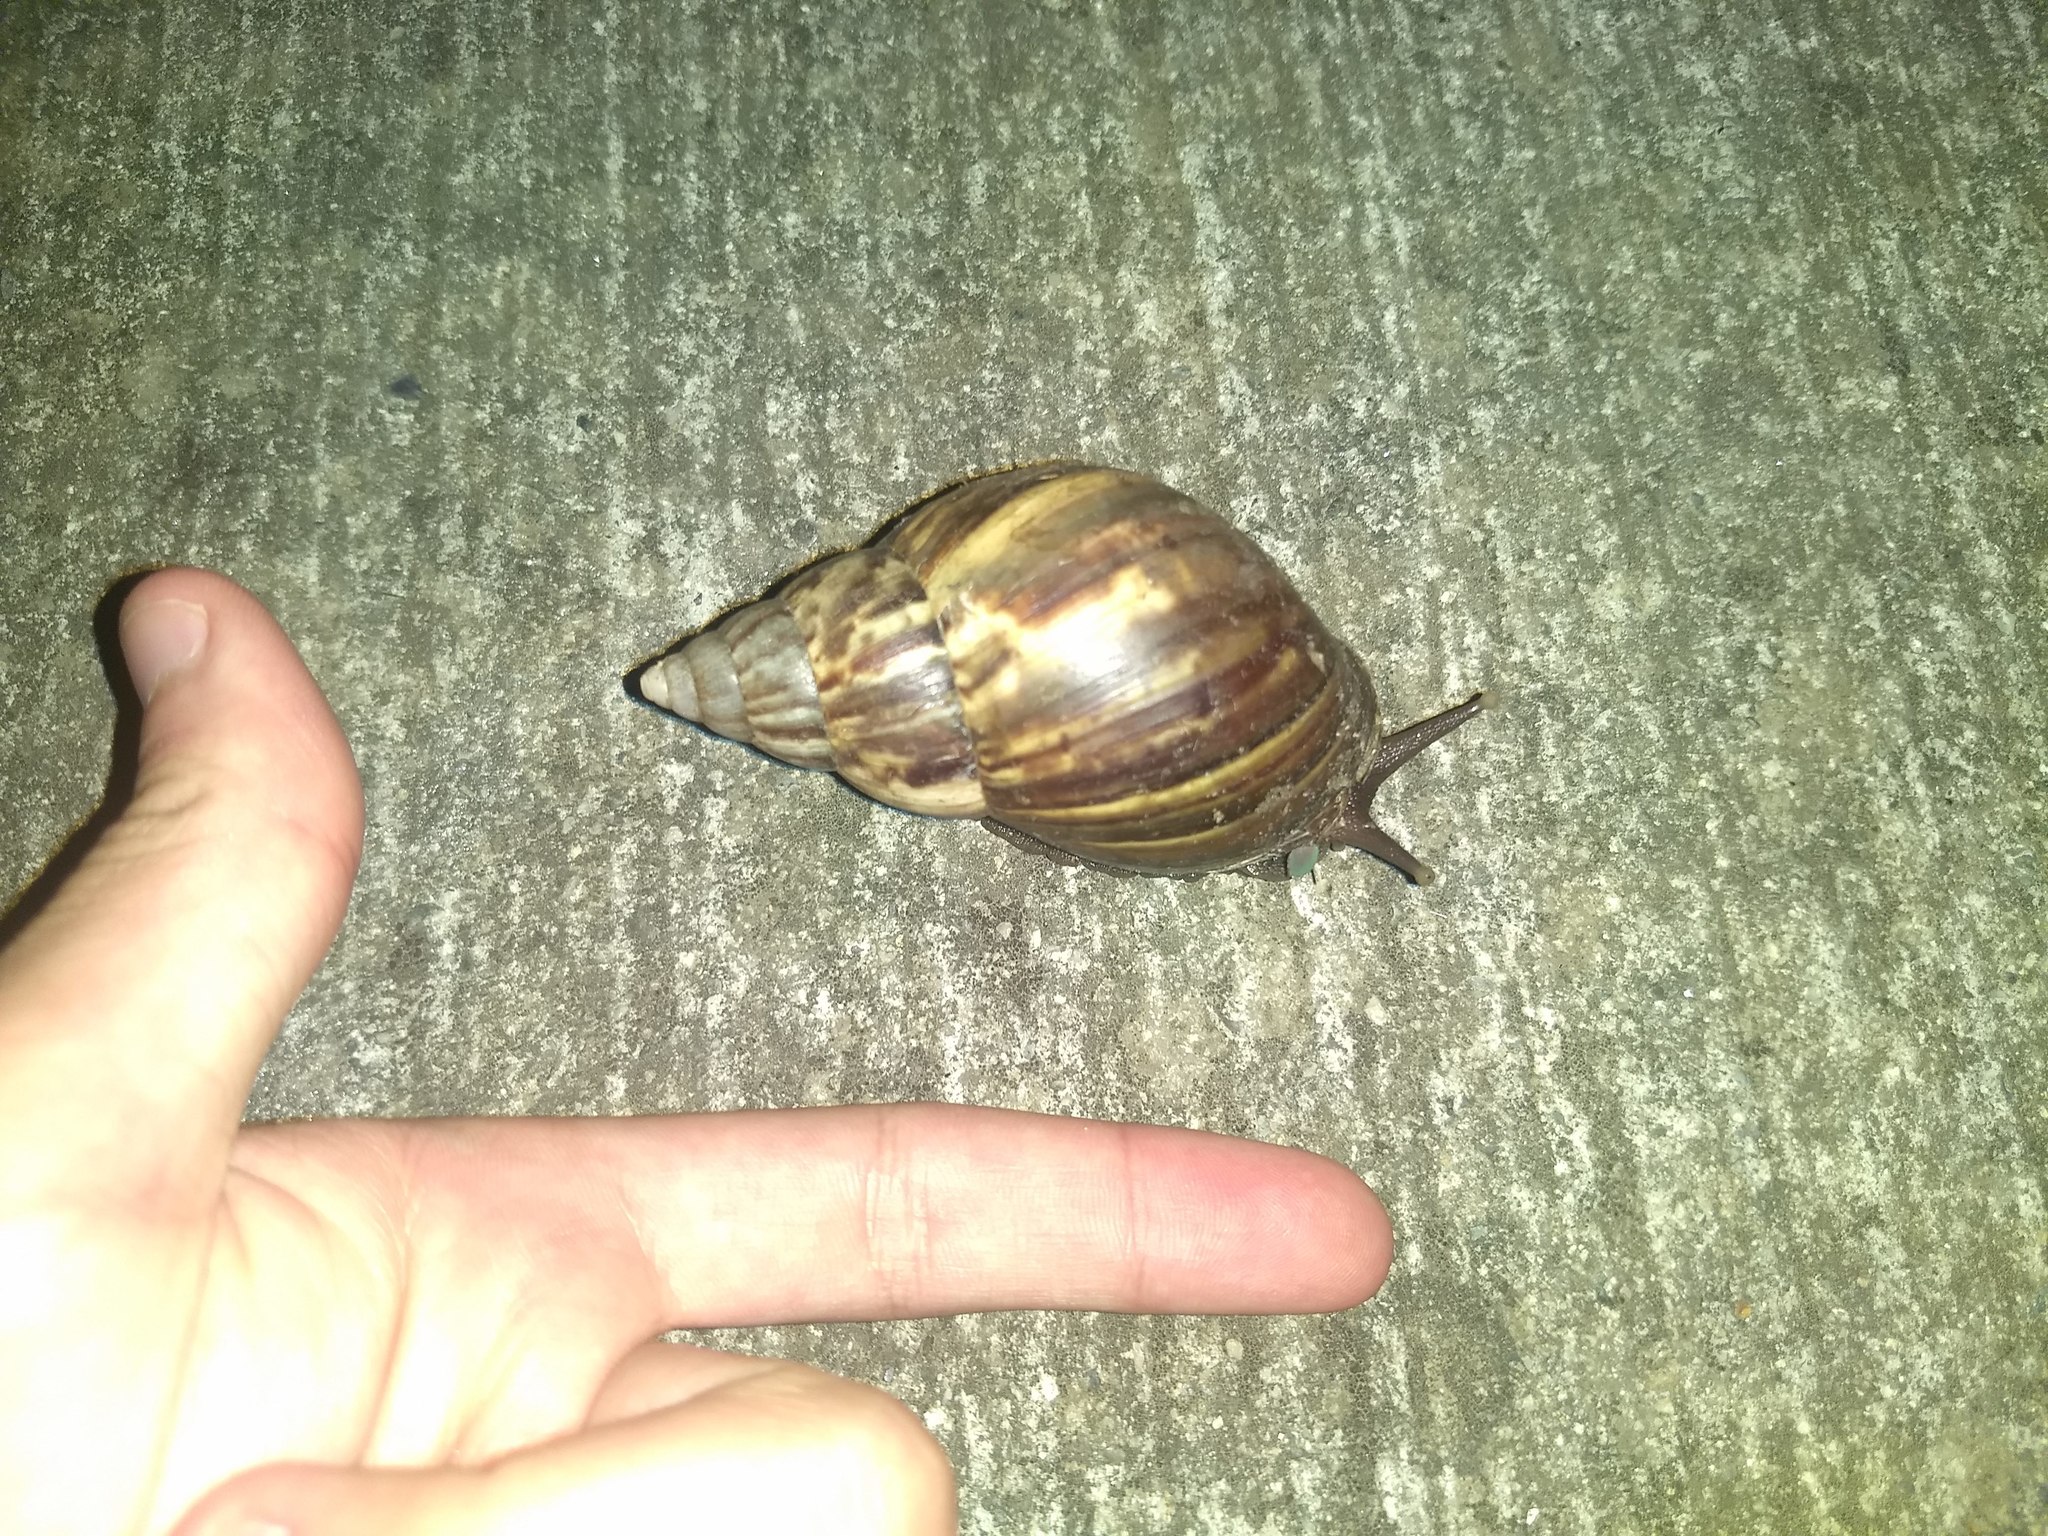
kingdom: Animalia
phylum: Mollusca
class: Gastropoda
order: Stylommatophora
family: Achatinidae
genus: Lissachatina
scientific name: Lissachatina fulica
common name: Giant african snail
